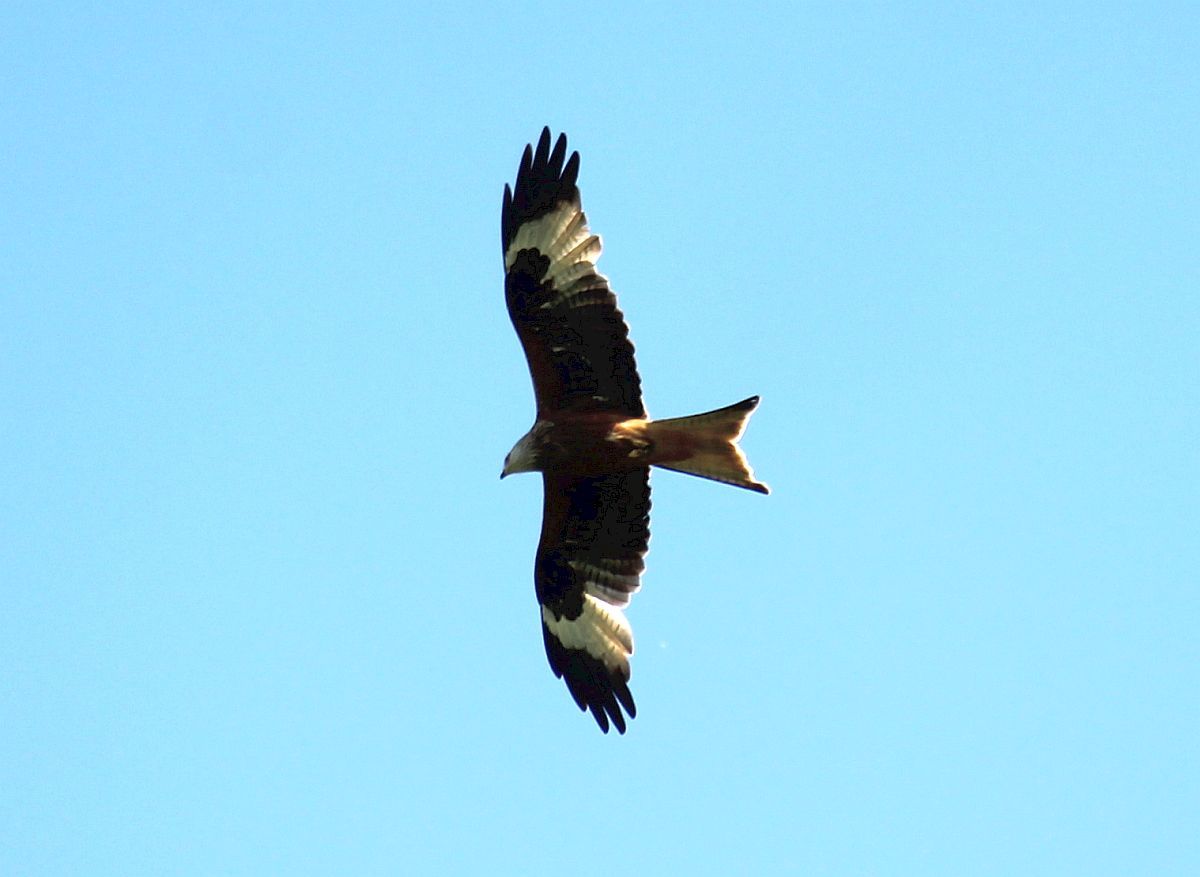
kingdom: Animalia
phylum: Chordata
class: Aves
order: Accipitriformes
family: Accipitridae
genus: Milvus
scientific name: Milvus milvus
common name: Red kite
